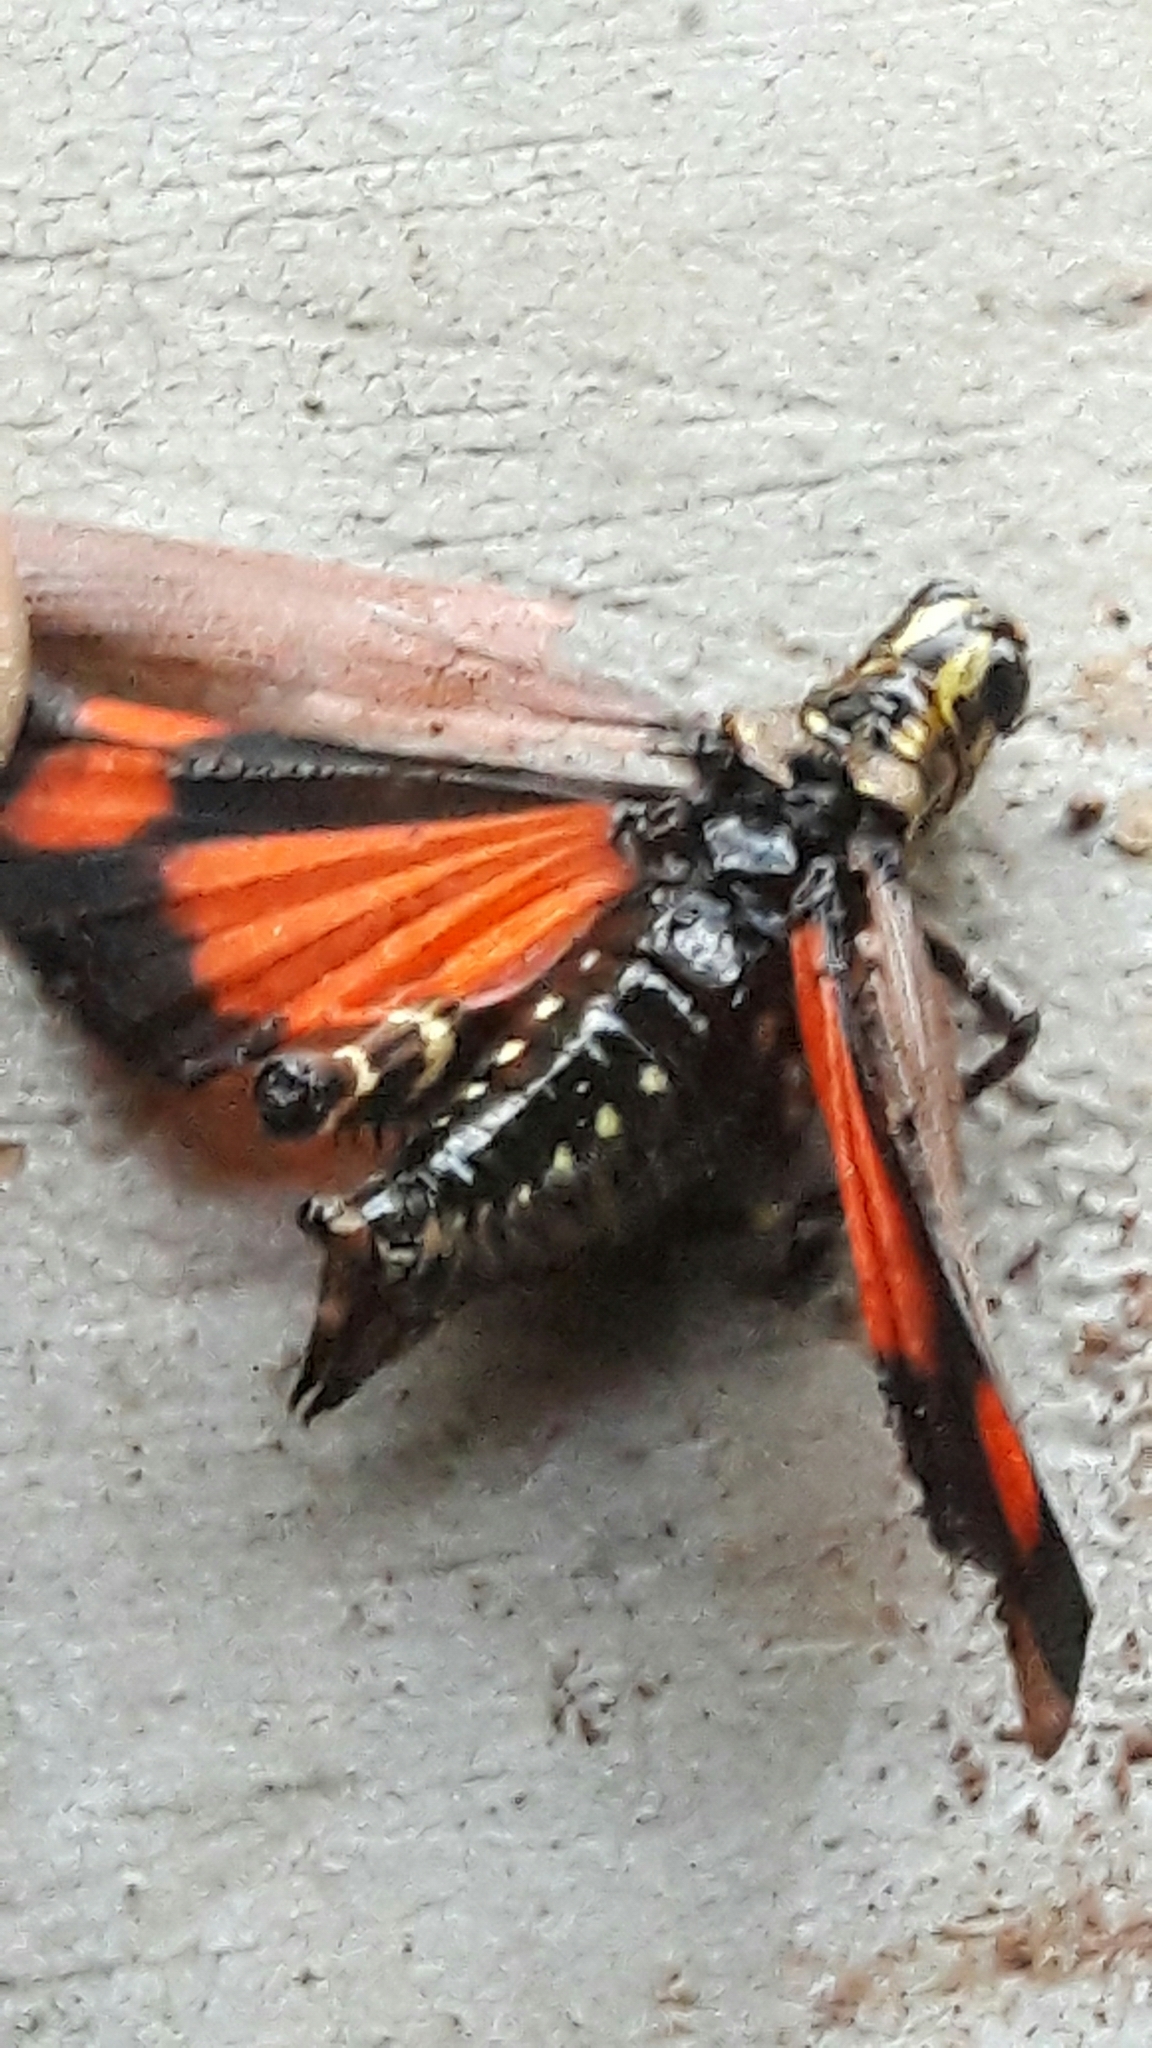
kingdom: Animalia
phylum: Arthropoda
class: Insecta
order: Orthoptera
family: Romaleidae
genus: Chromacris
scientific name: Chromacris speciosa
